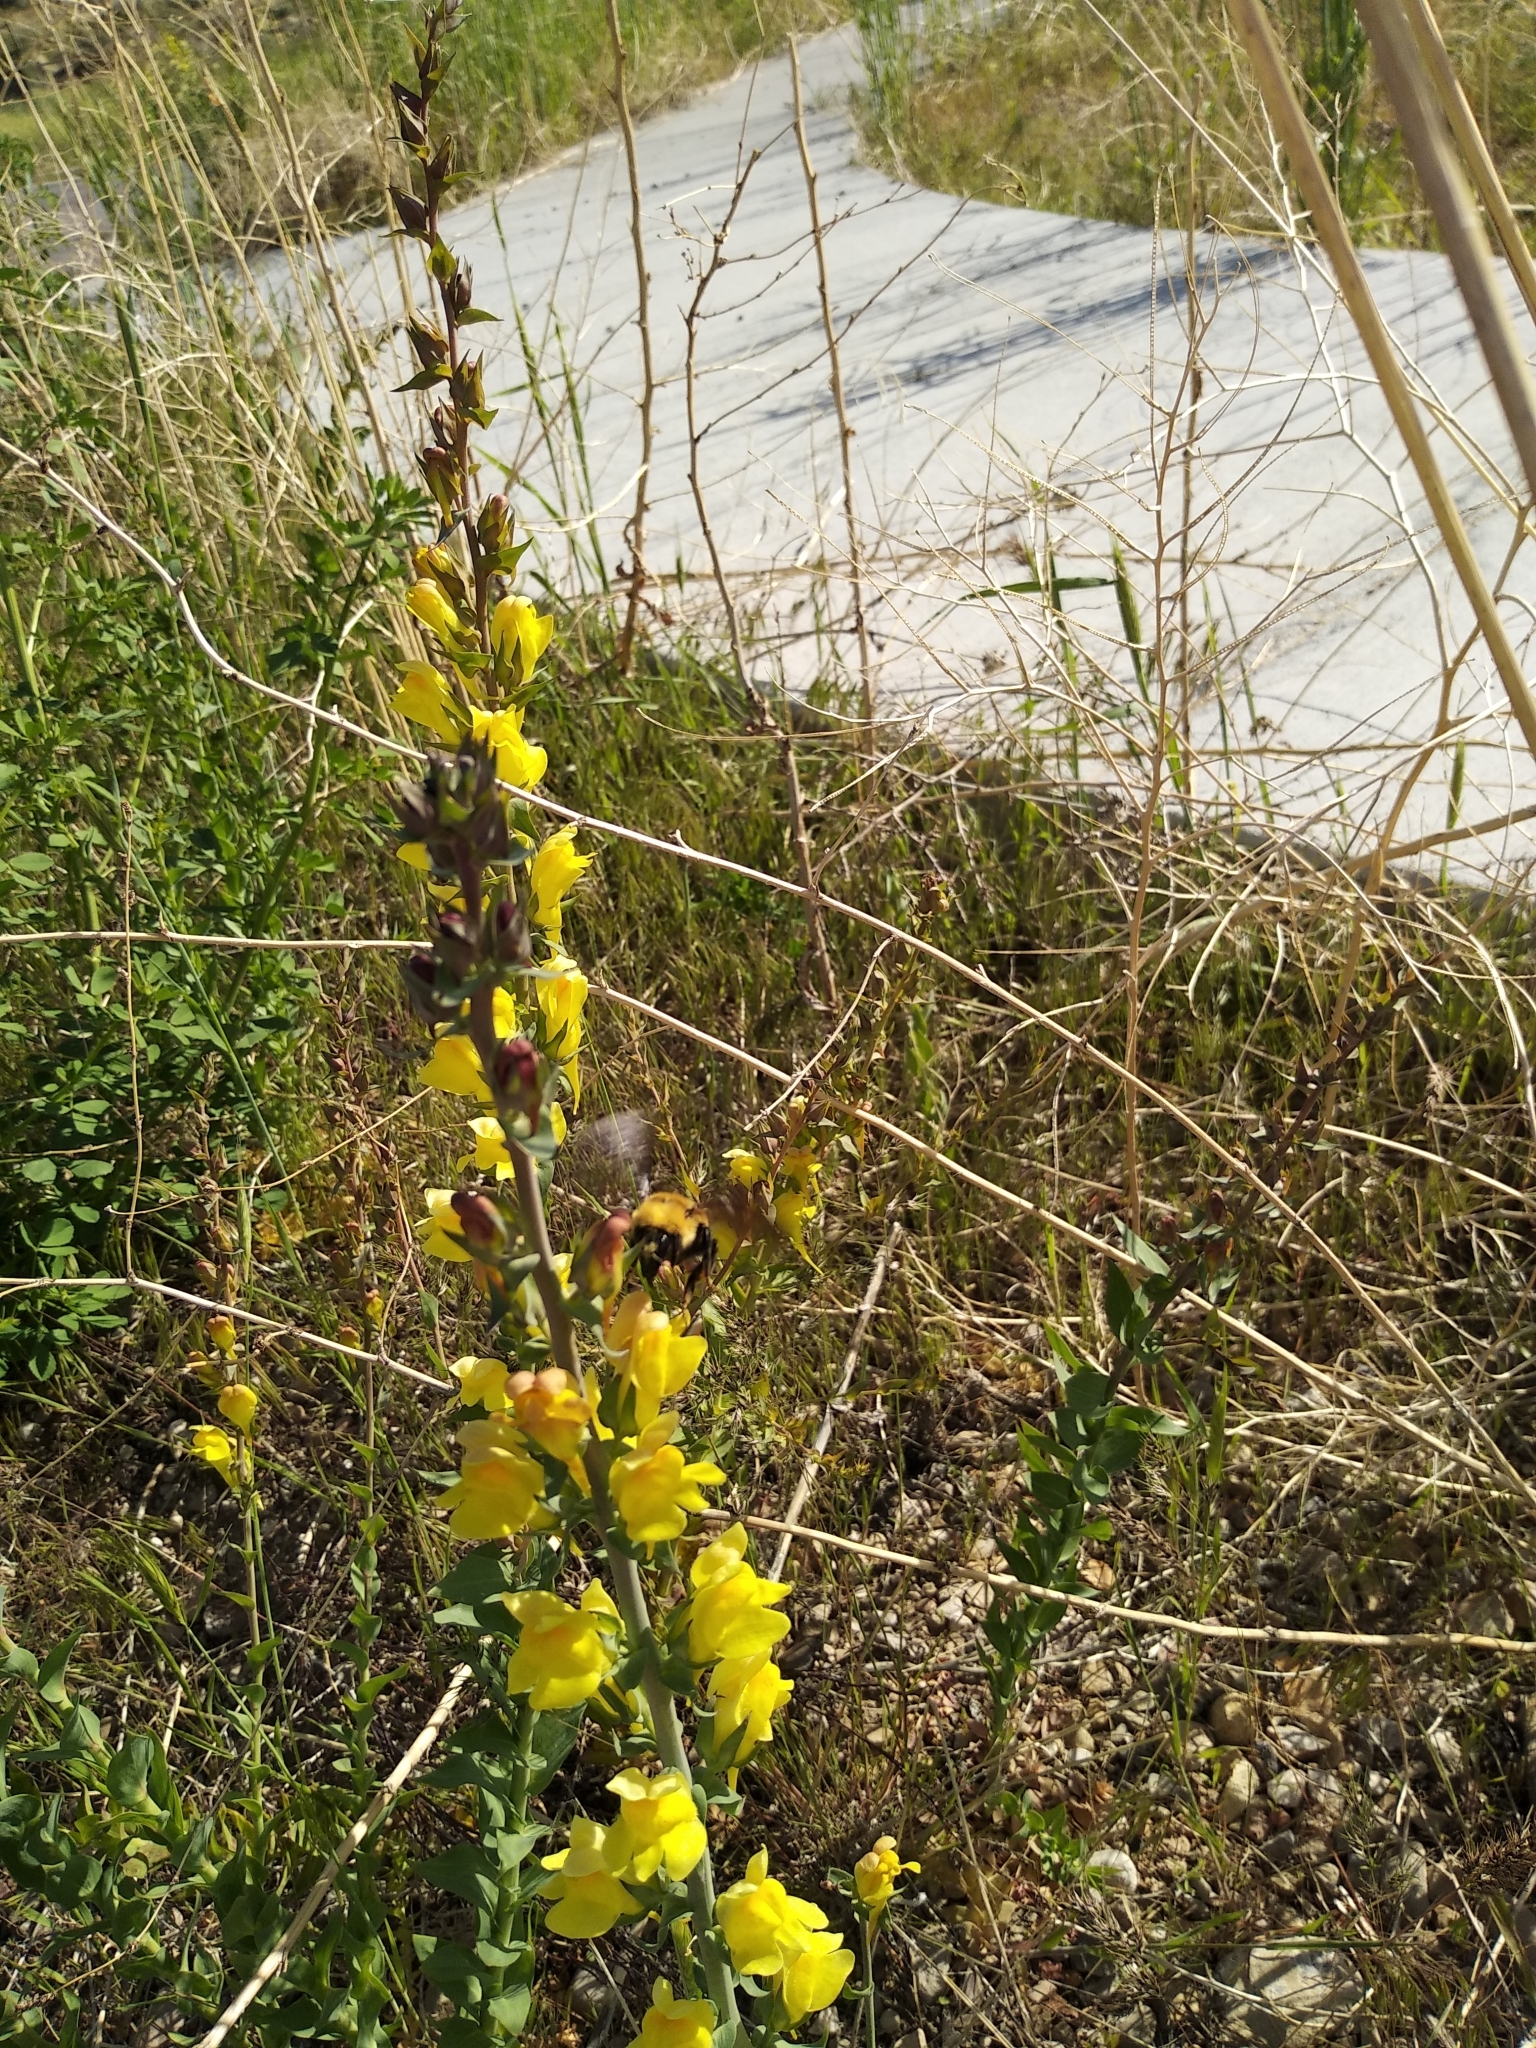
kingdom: Plantae
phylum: Tracheophyta
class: Magnoliopsida
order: Lamiales
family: Plantaginaceae
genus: Linaria
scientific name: Linaria dalmatica
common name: Dalmatian toadflax
